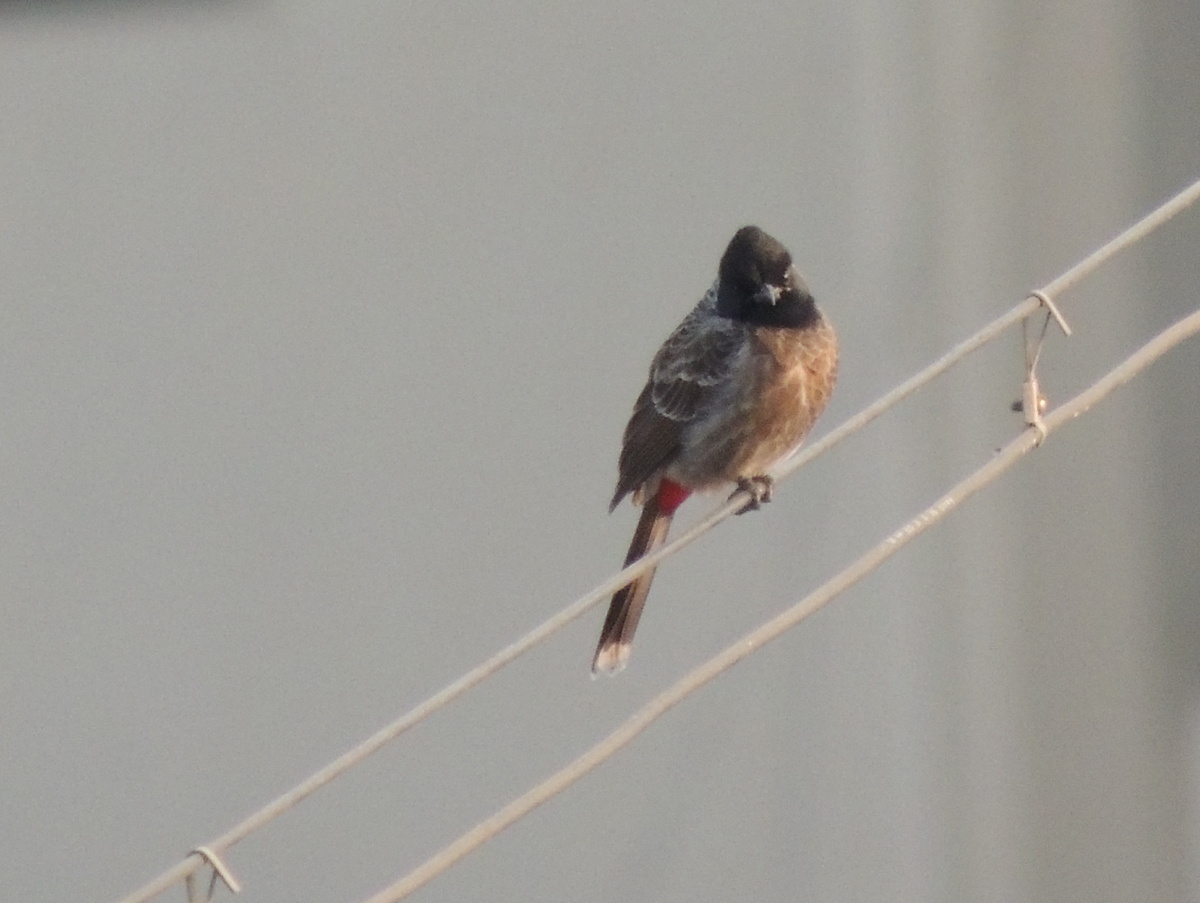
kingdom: Animalia
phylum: Chordata
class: Aves
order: Passeriformes
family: Pycnonotidae
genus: Pycnonotus
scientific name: Pycnonotus cafer
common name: Red-vented bulbul
